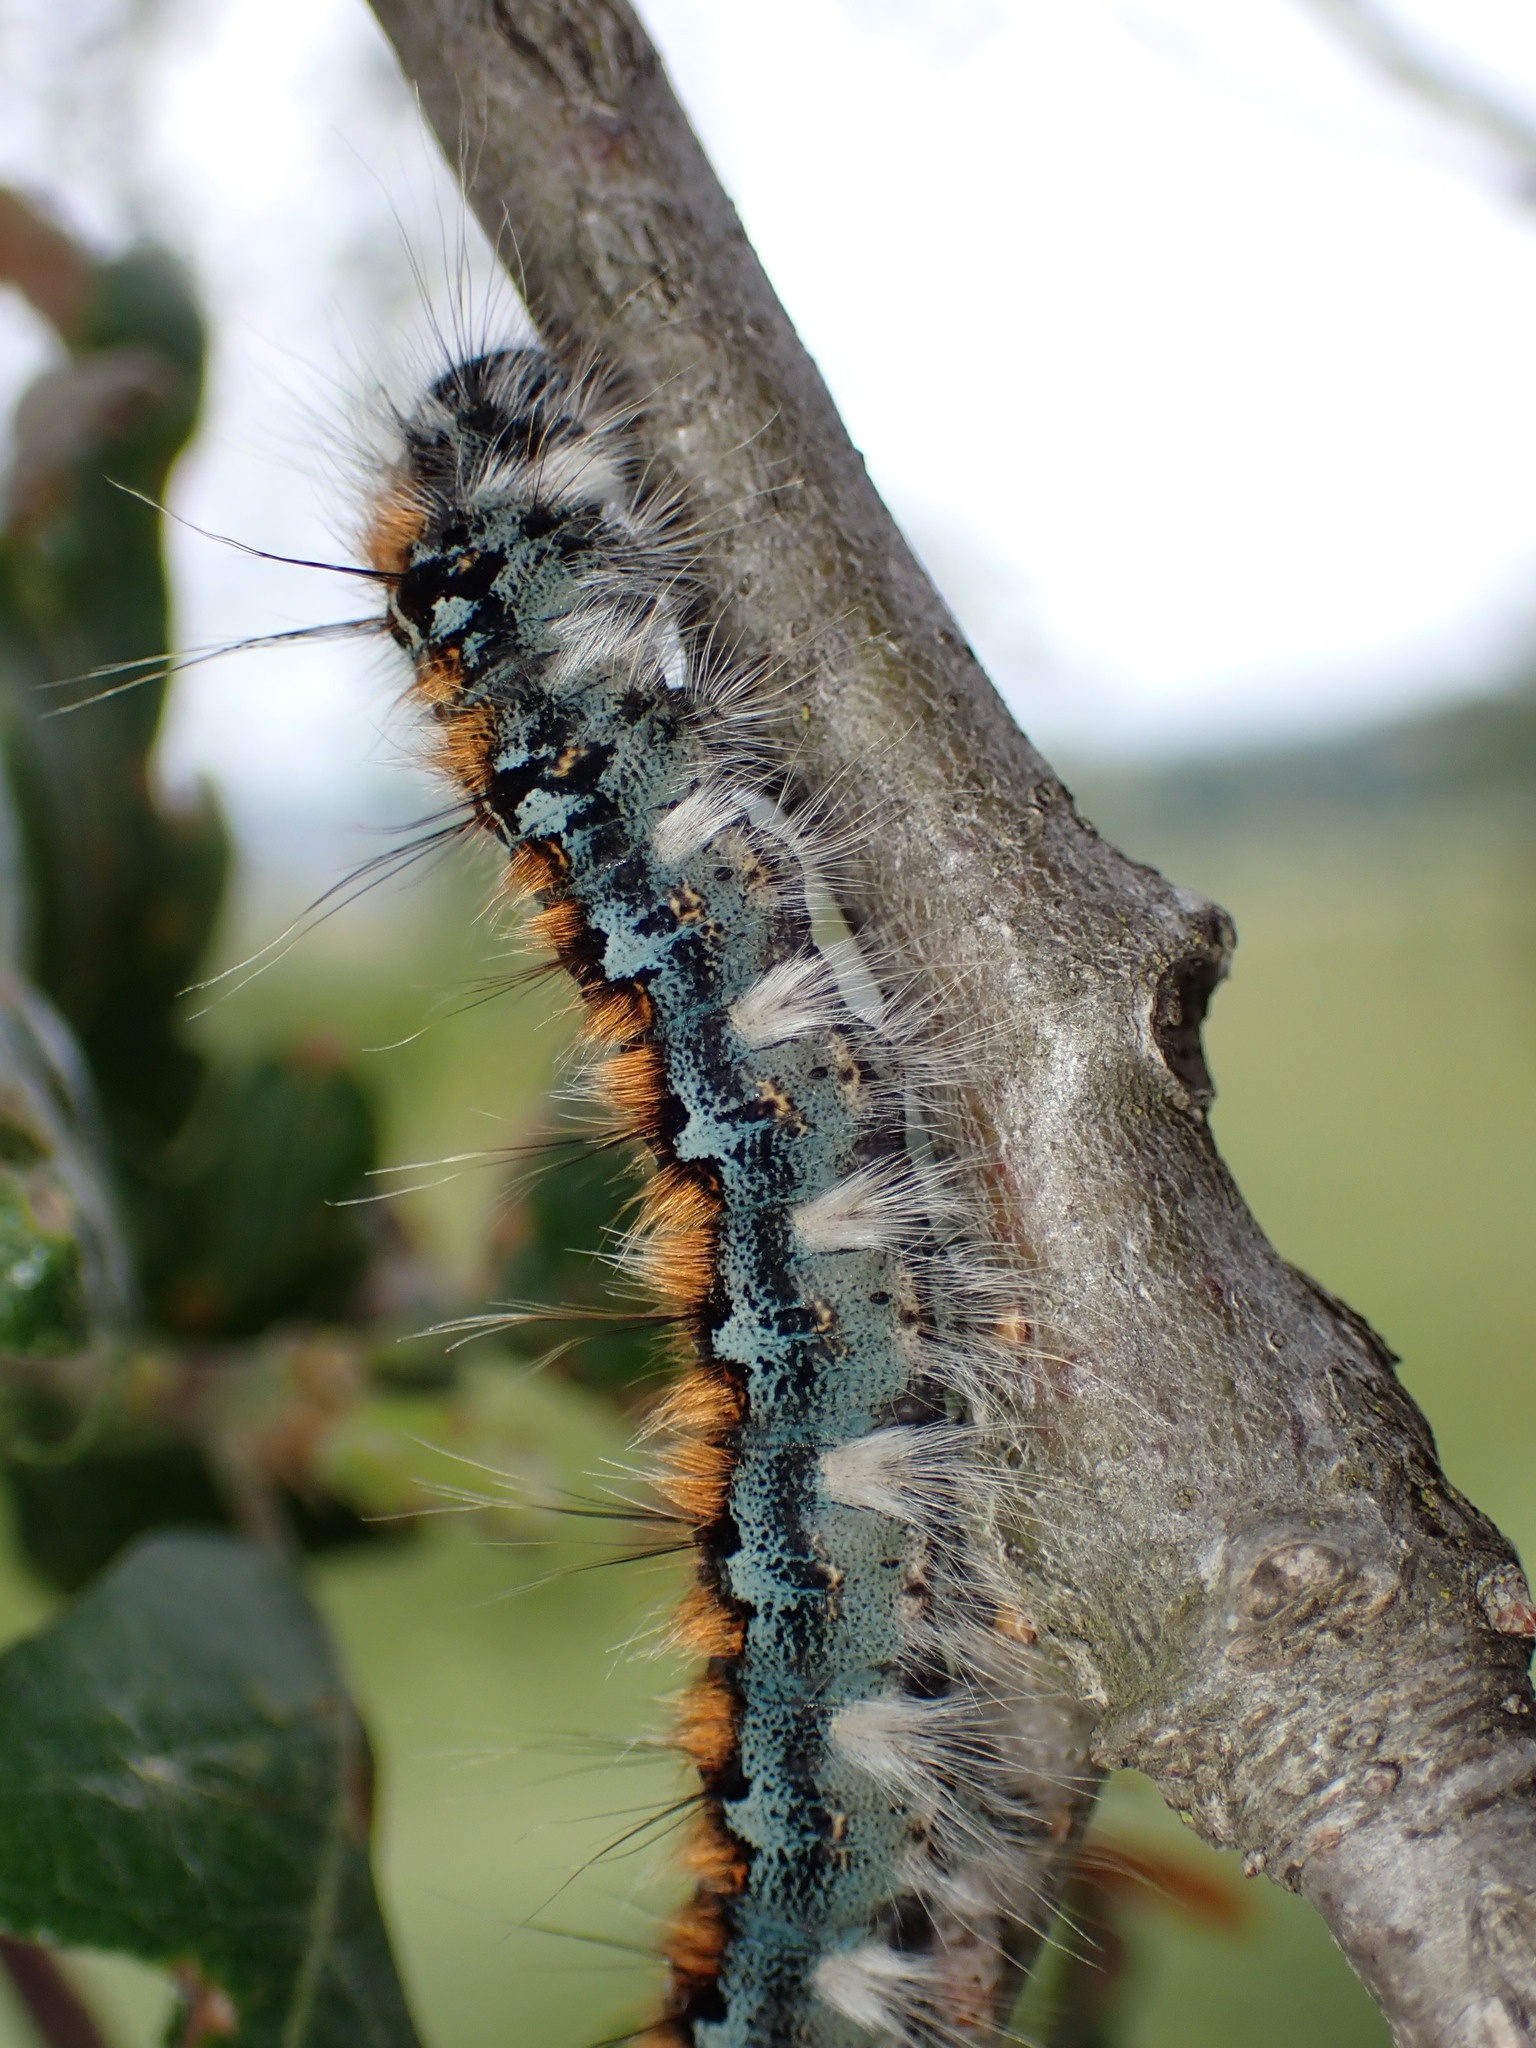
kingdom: Animalia
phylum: Arthropoda
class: Insecta
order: Lepidoptera
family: Lasiocampidae
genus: Malacosoma
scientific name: Malacosoma constricta
